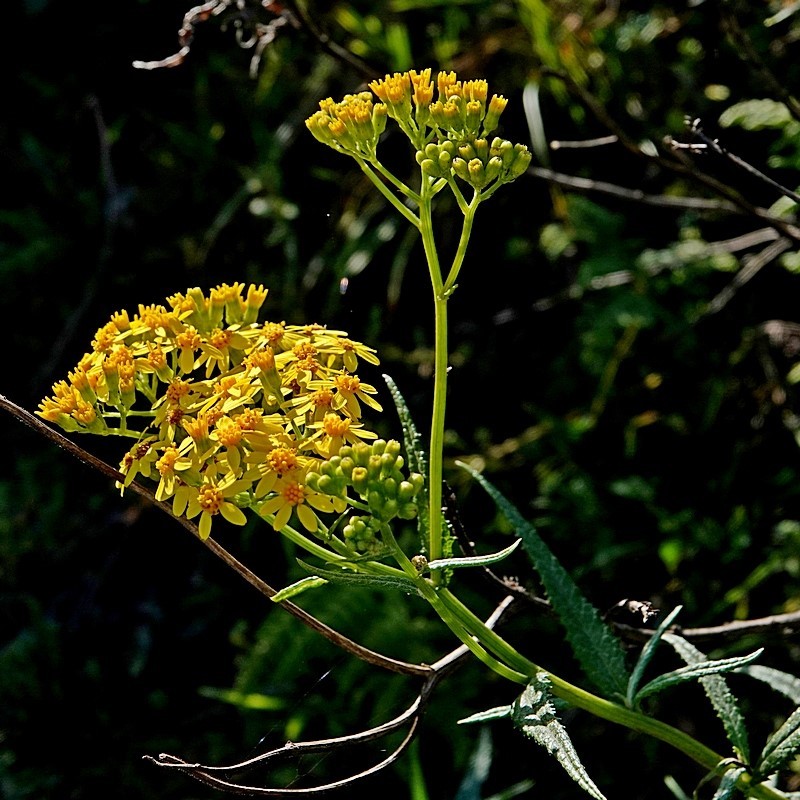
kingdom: Plantae
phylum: Tracheophyta
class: Magnoliopsida
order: Asterales
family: Asteraceae
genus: Senecio
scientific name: Senecio linearifolius
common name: Fireweed groundsel
